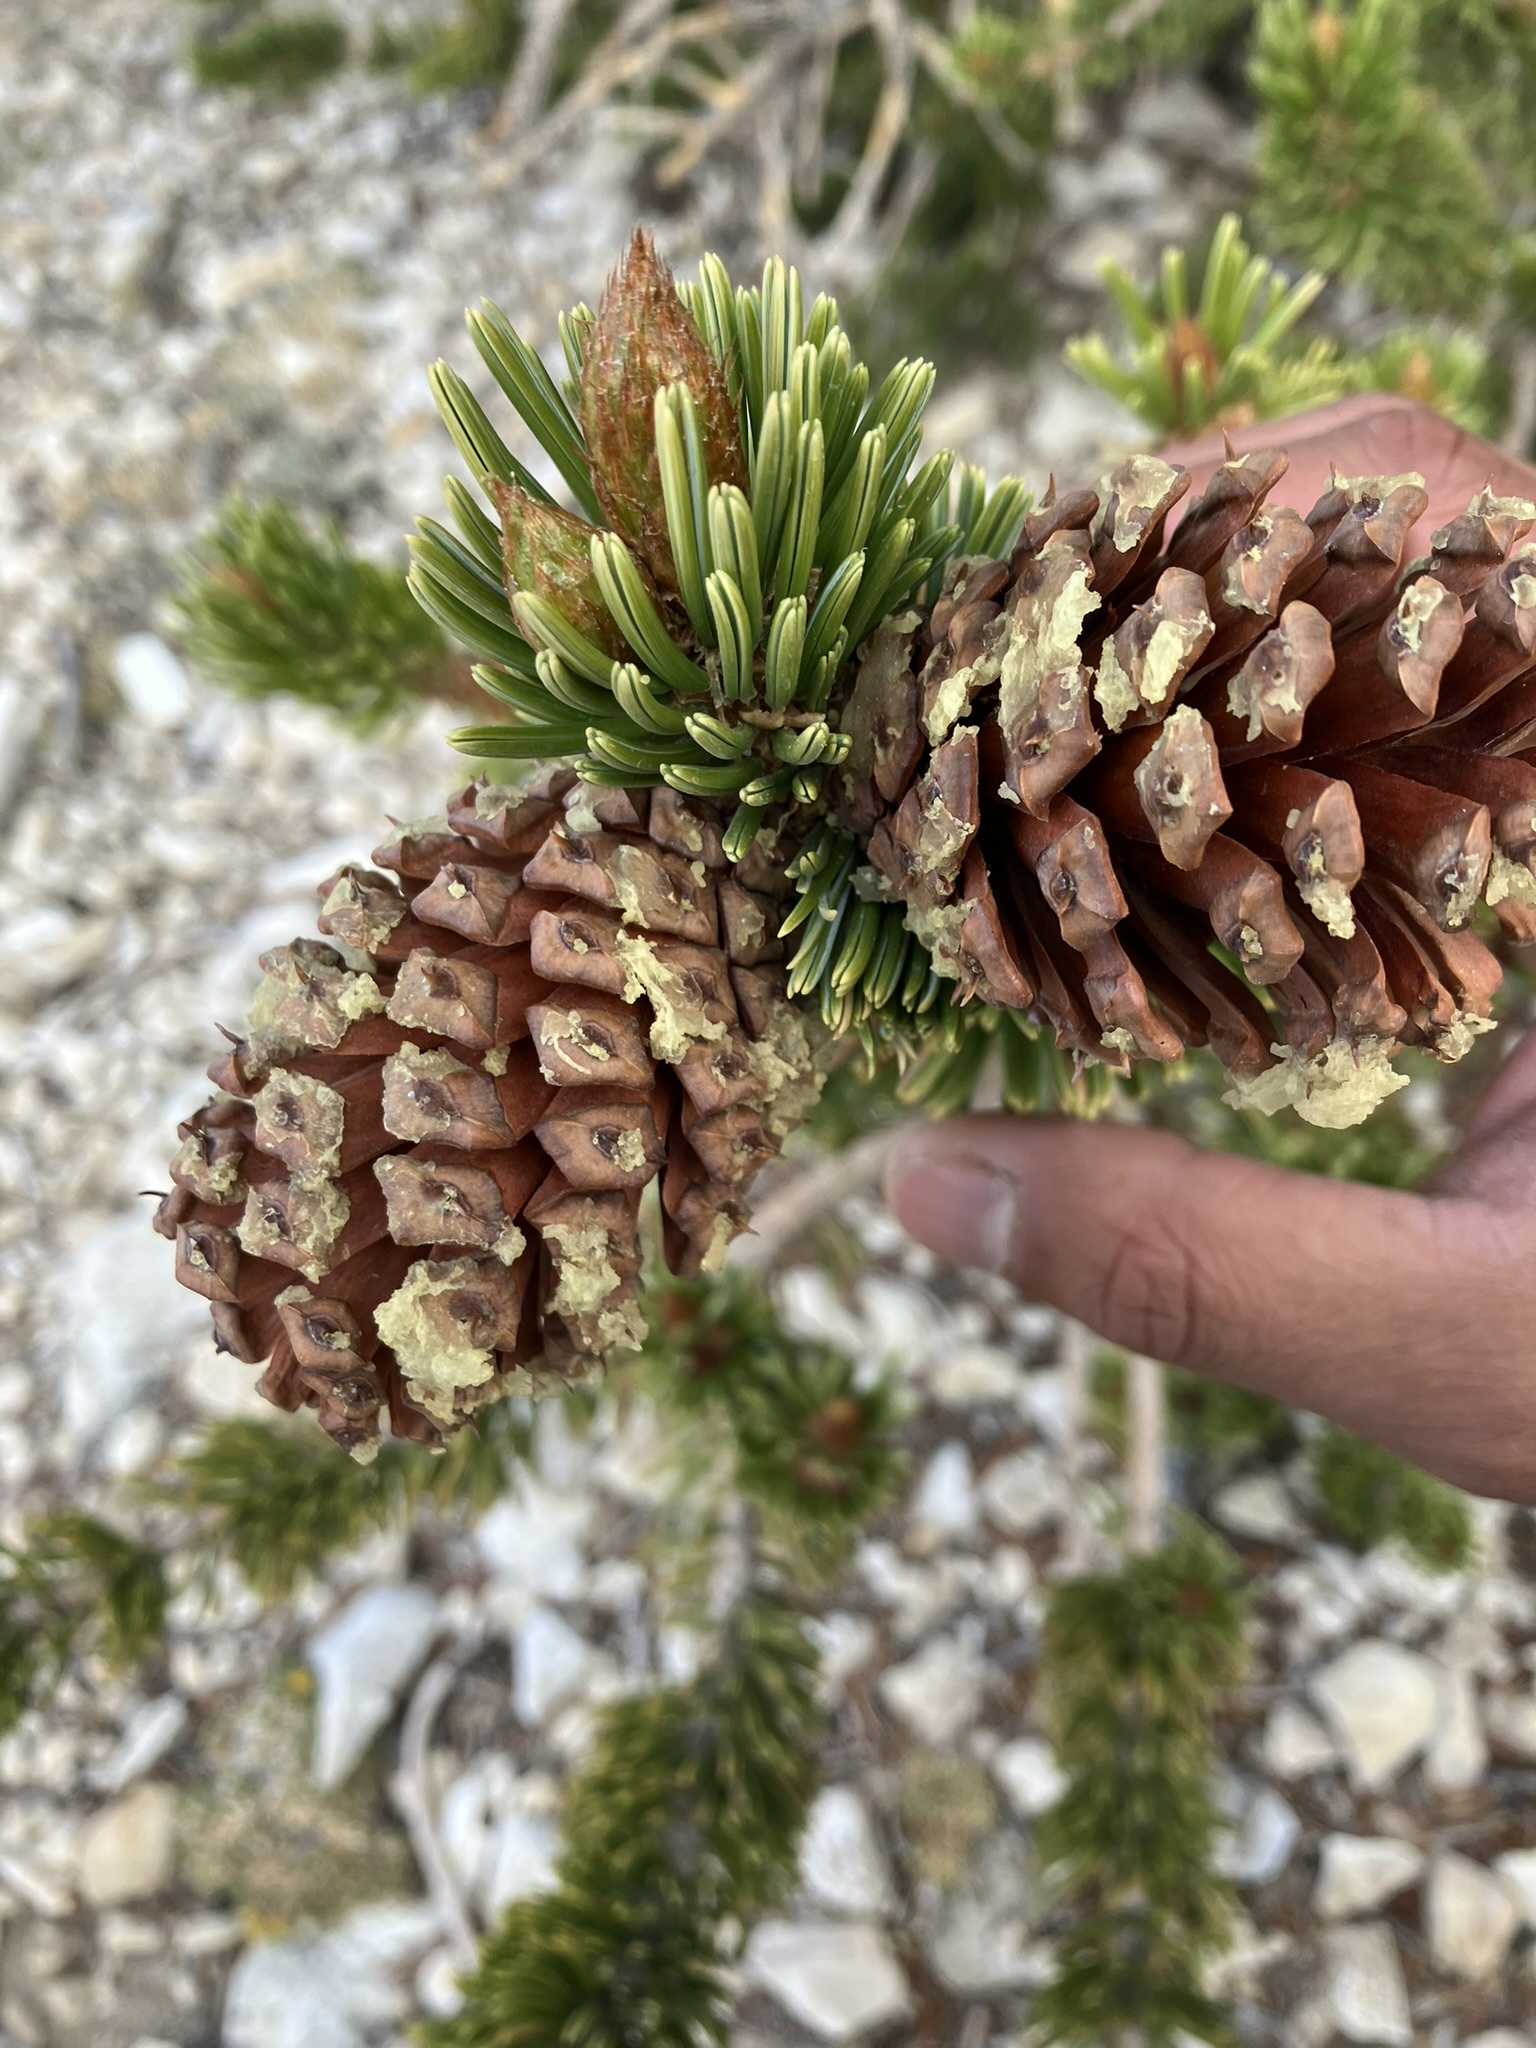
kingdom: Plantae
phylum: Tracheophyta
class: Pinopsida
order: Pinales
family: Pinaceae
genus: Pinus
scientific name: Pinus longaeva
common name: Intermountain bristlecone pine
